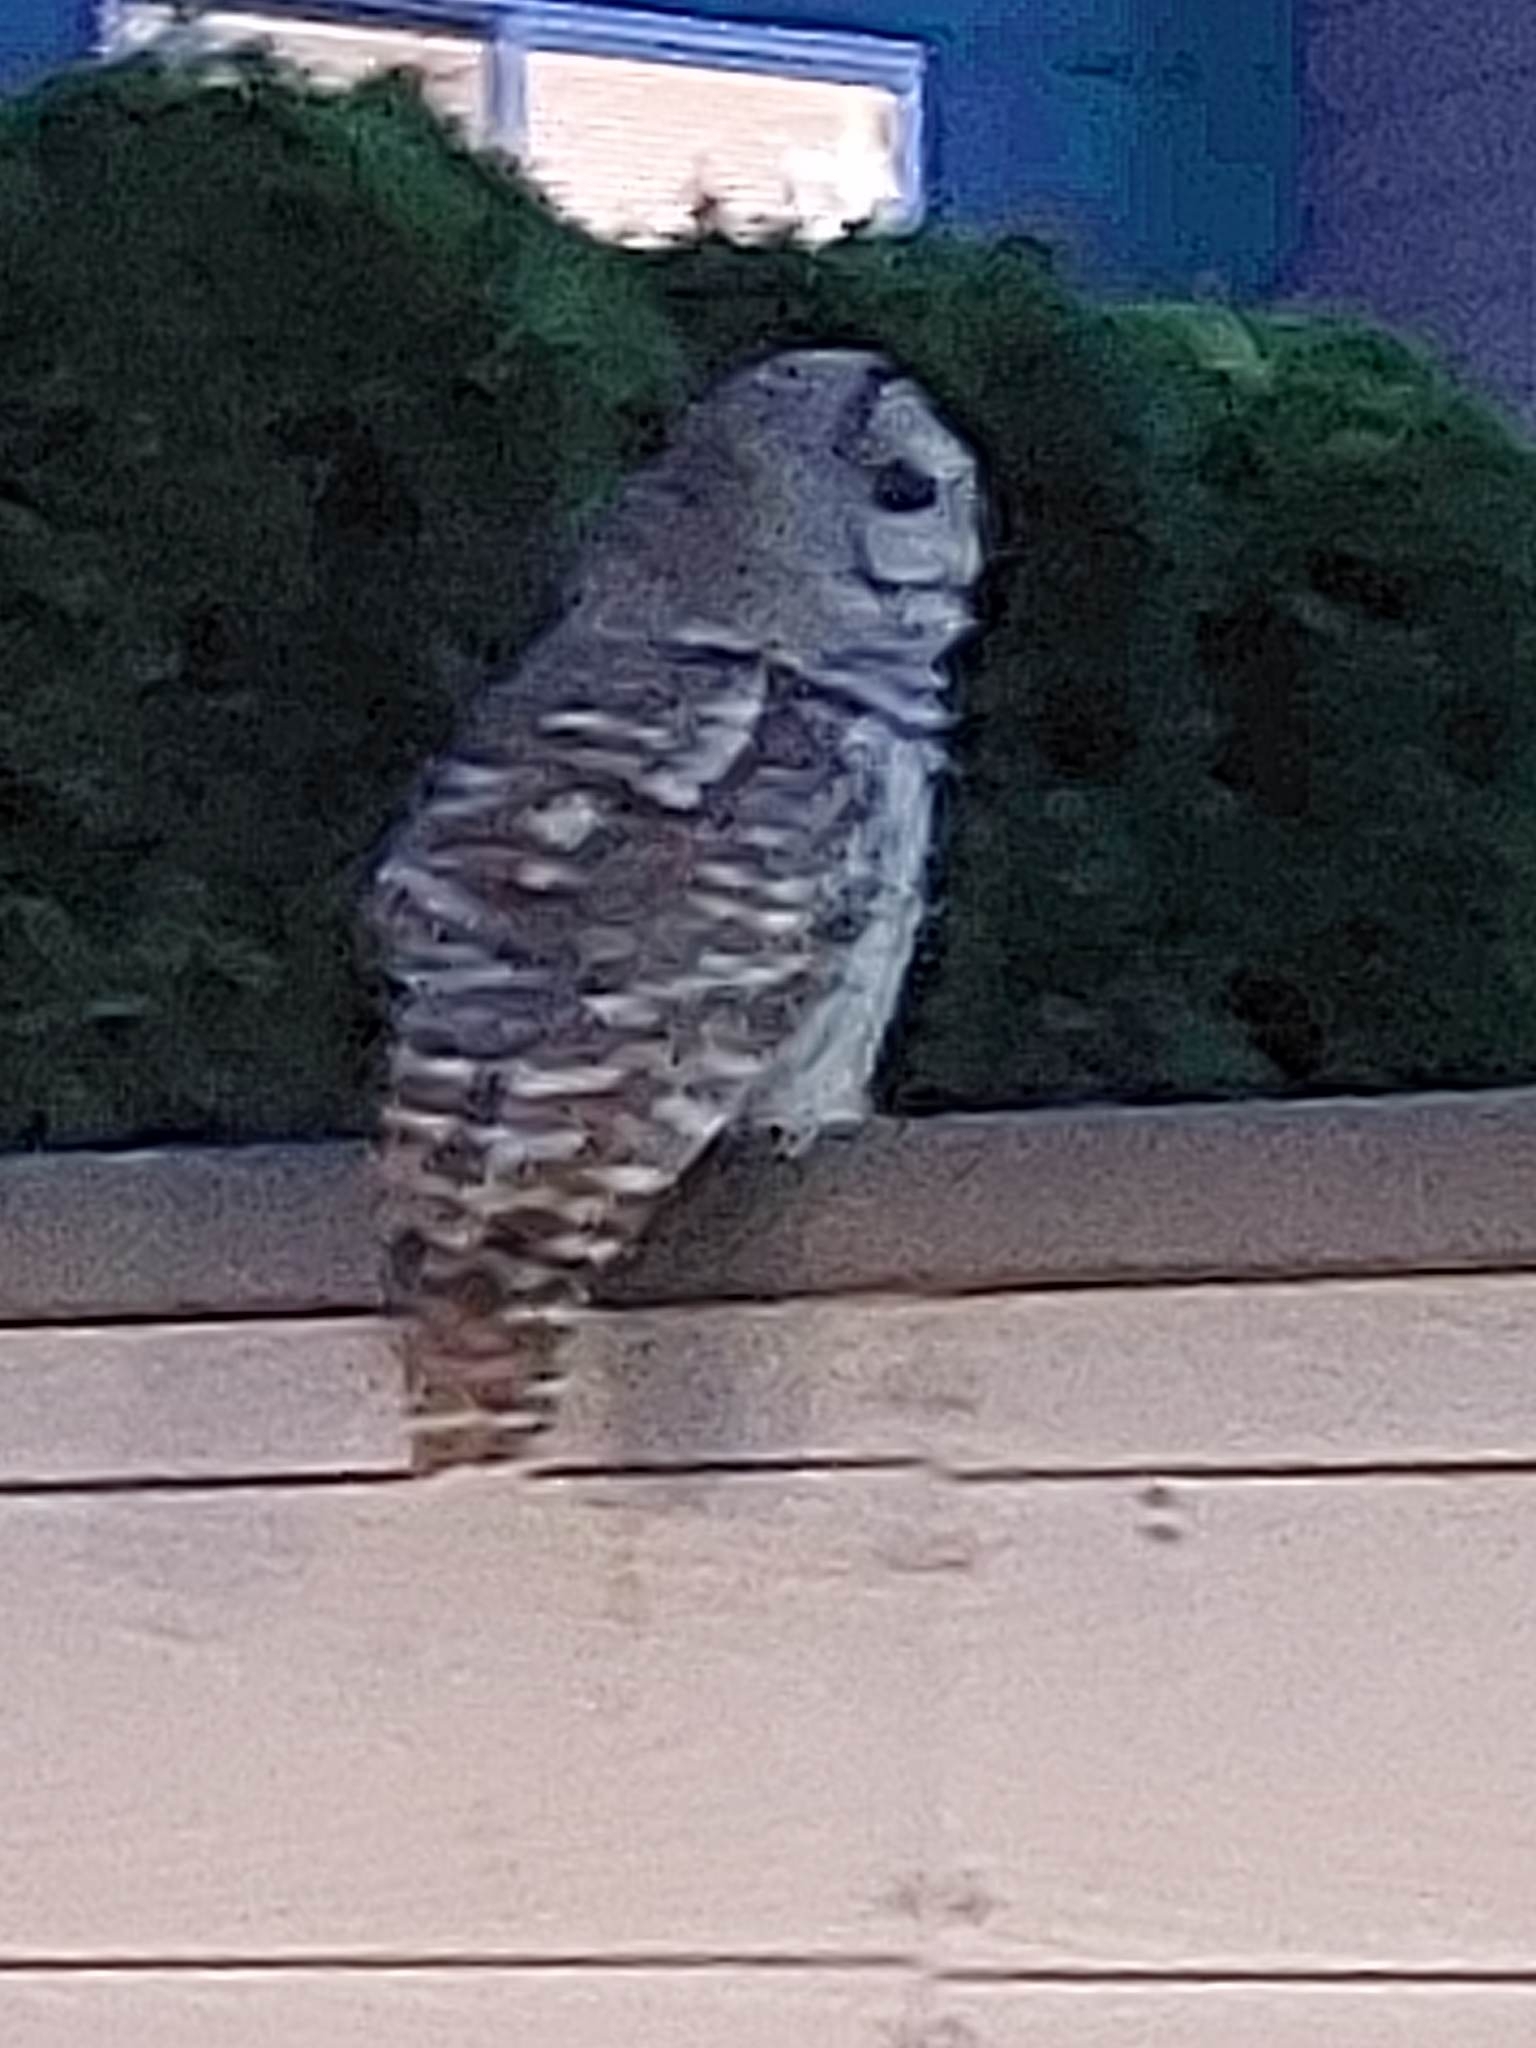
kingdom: Animalia
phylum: Chordata
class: Aves
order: Strigiformes
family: Strigidae
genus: Strix
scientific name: Strix varia
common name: Barred owl
